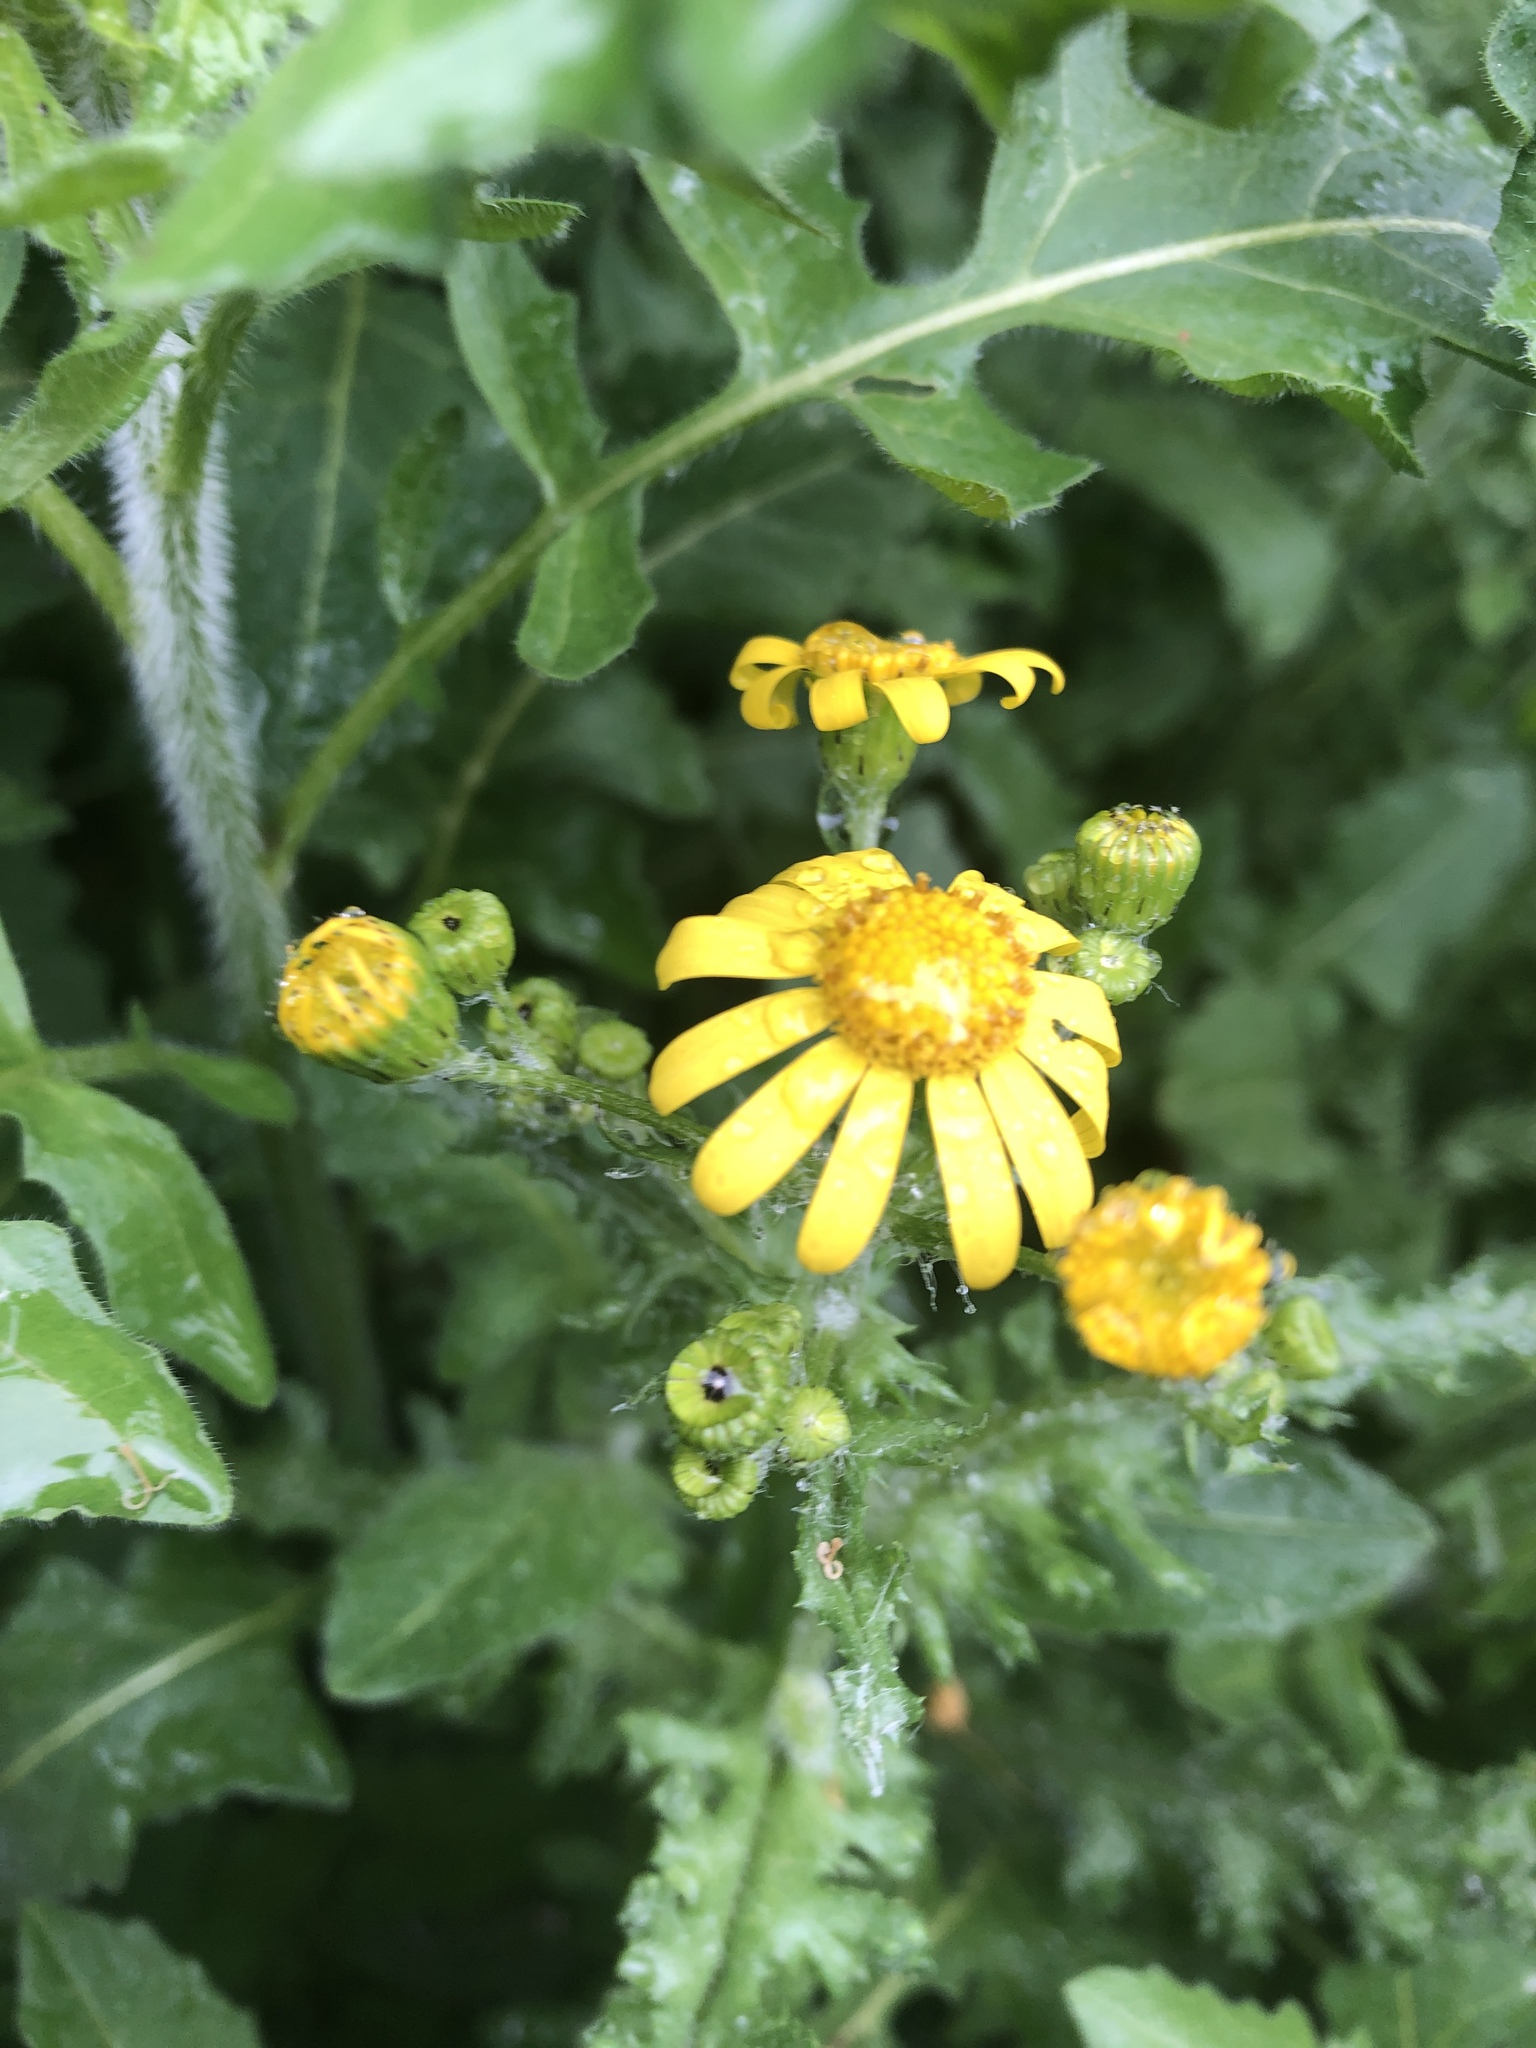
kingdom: Plantae
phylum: Tracheophyta
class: Magnoliopsida
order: Asterales
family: Asteraceae
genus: Senecio
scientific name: Senecio vernalis
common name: Eastern groundsel
